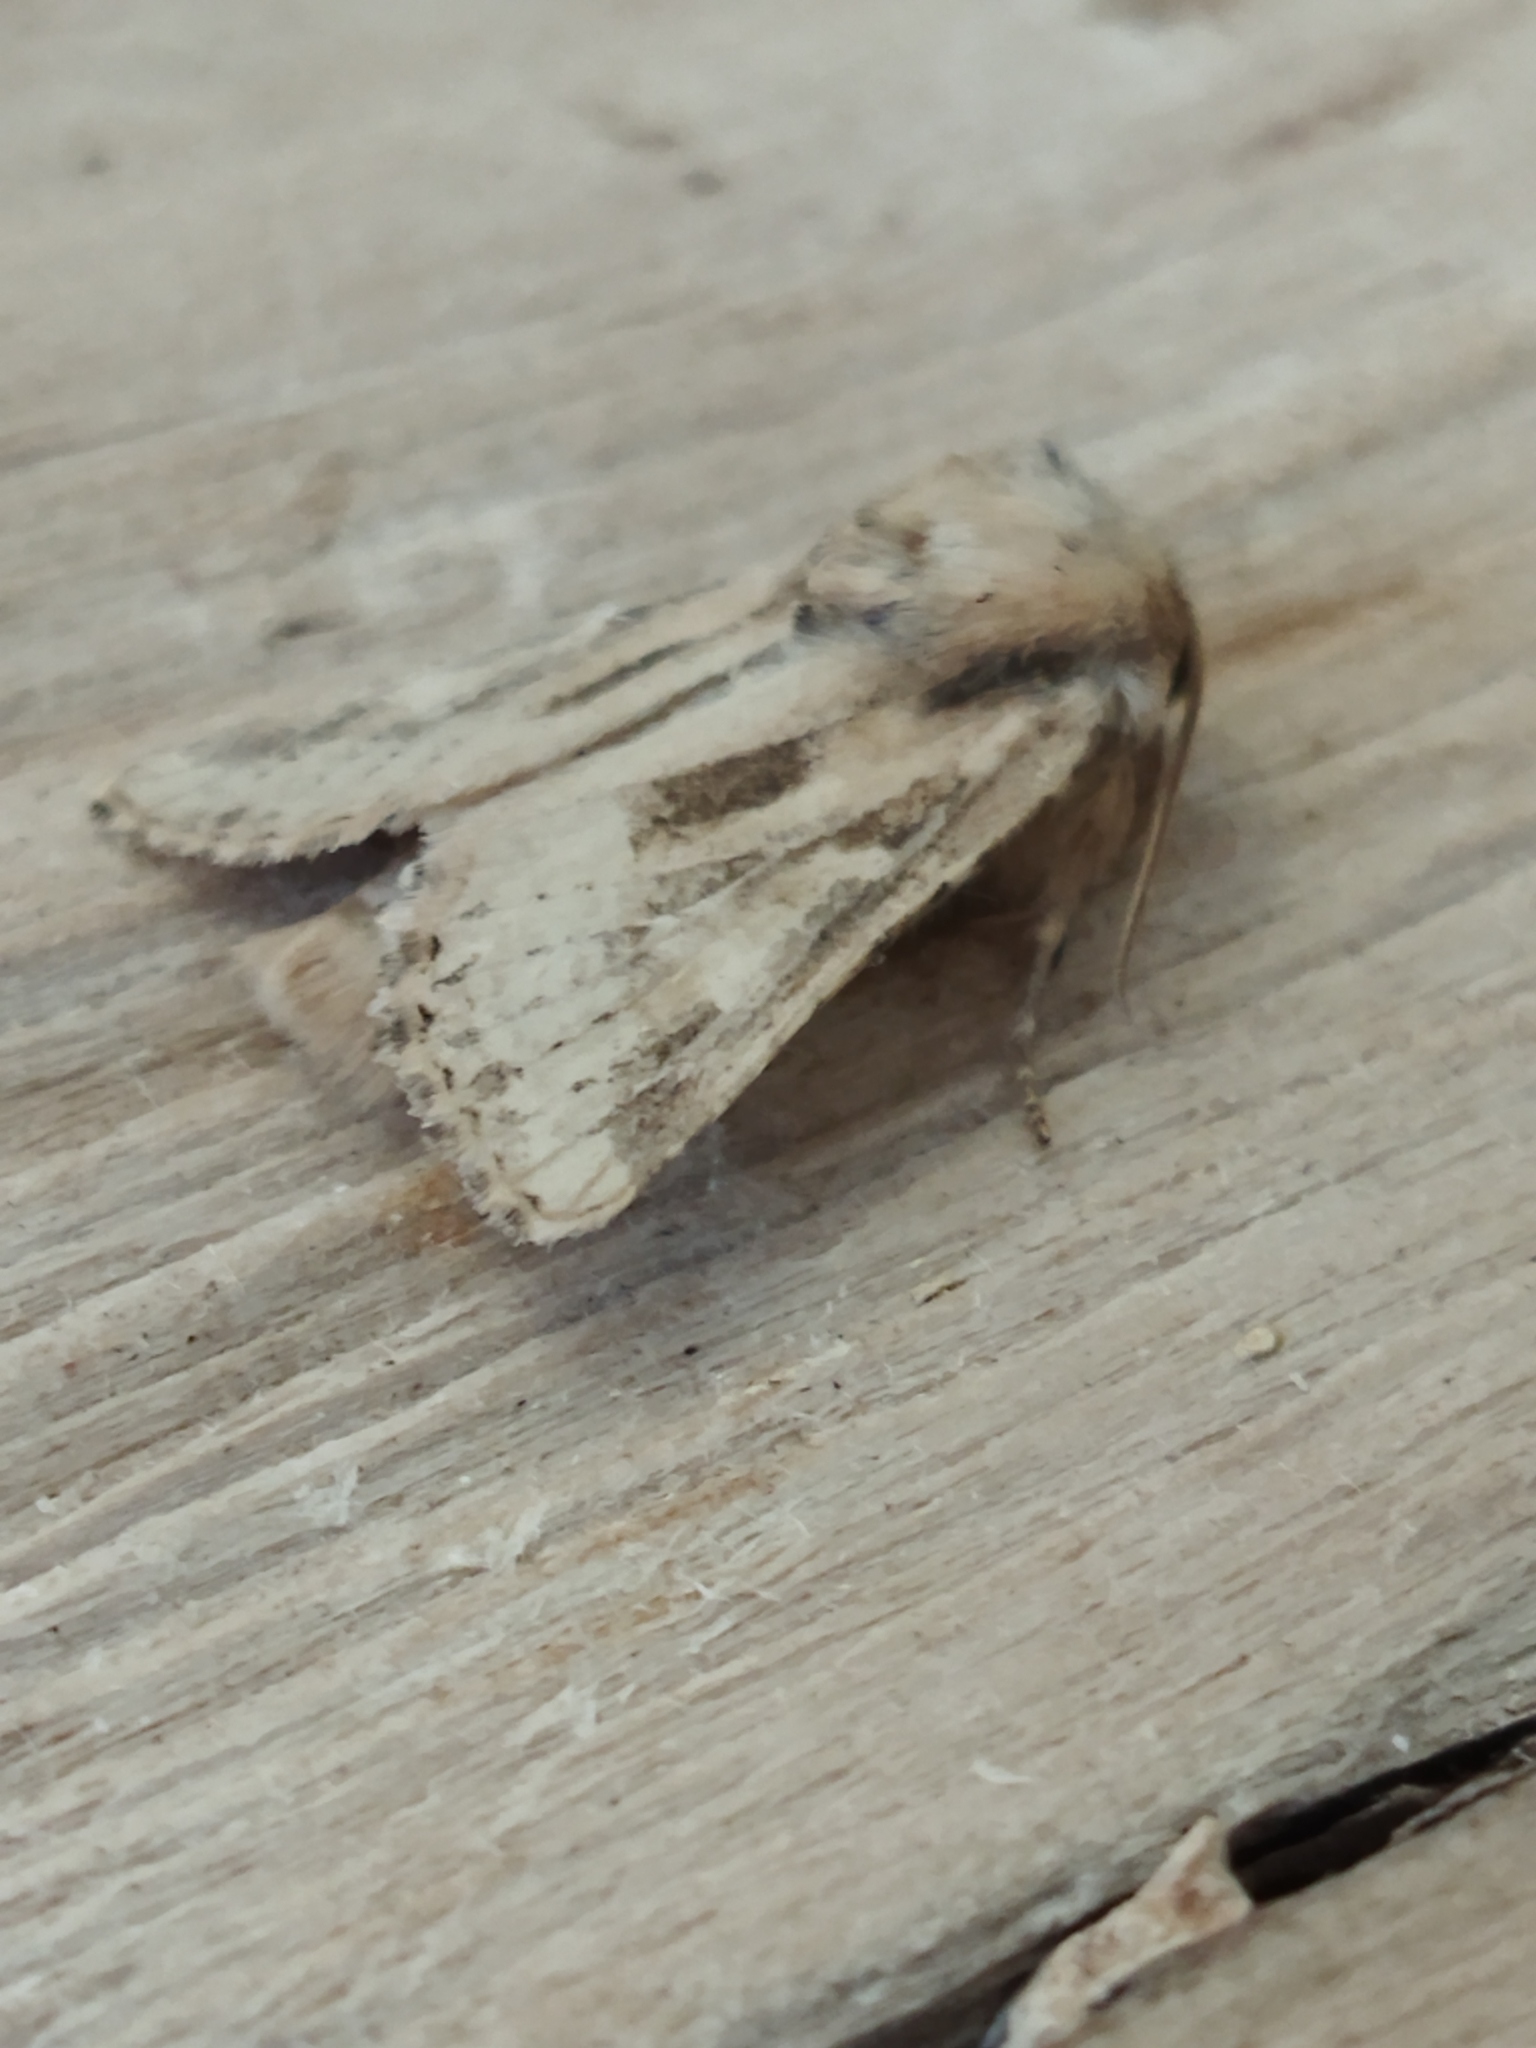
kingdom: Animalia
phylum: Arthropoda
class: Insecta
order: Lepidoptera
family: Noctuidae
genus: Luperina
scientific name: Luperina dumerilii
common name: Dumeril's rustic
